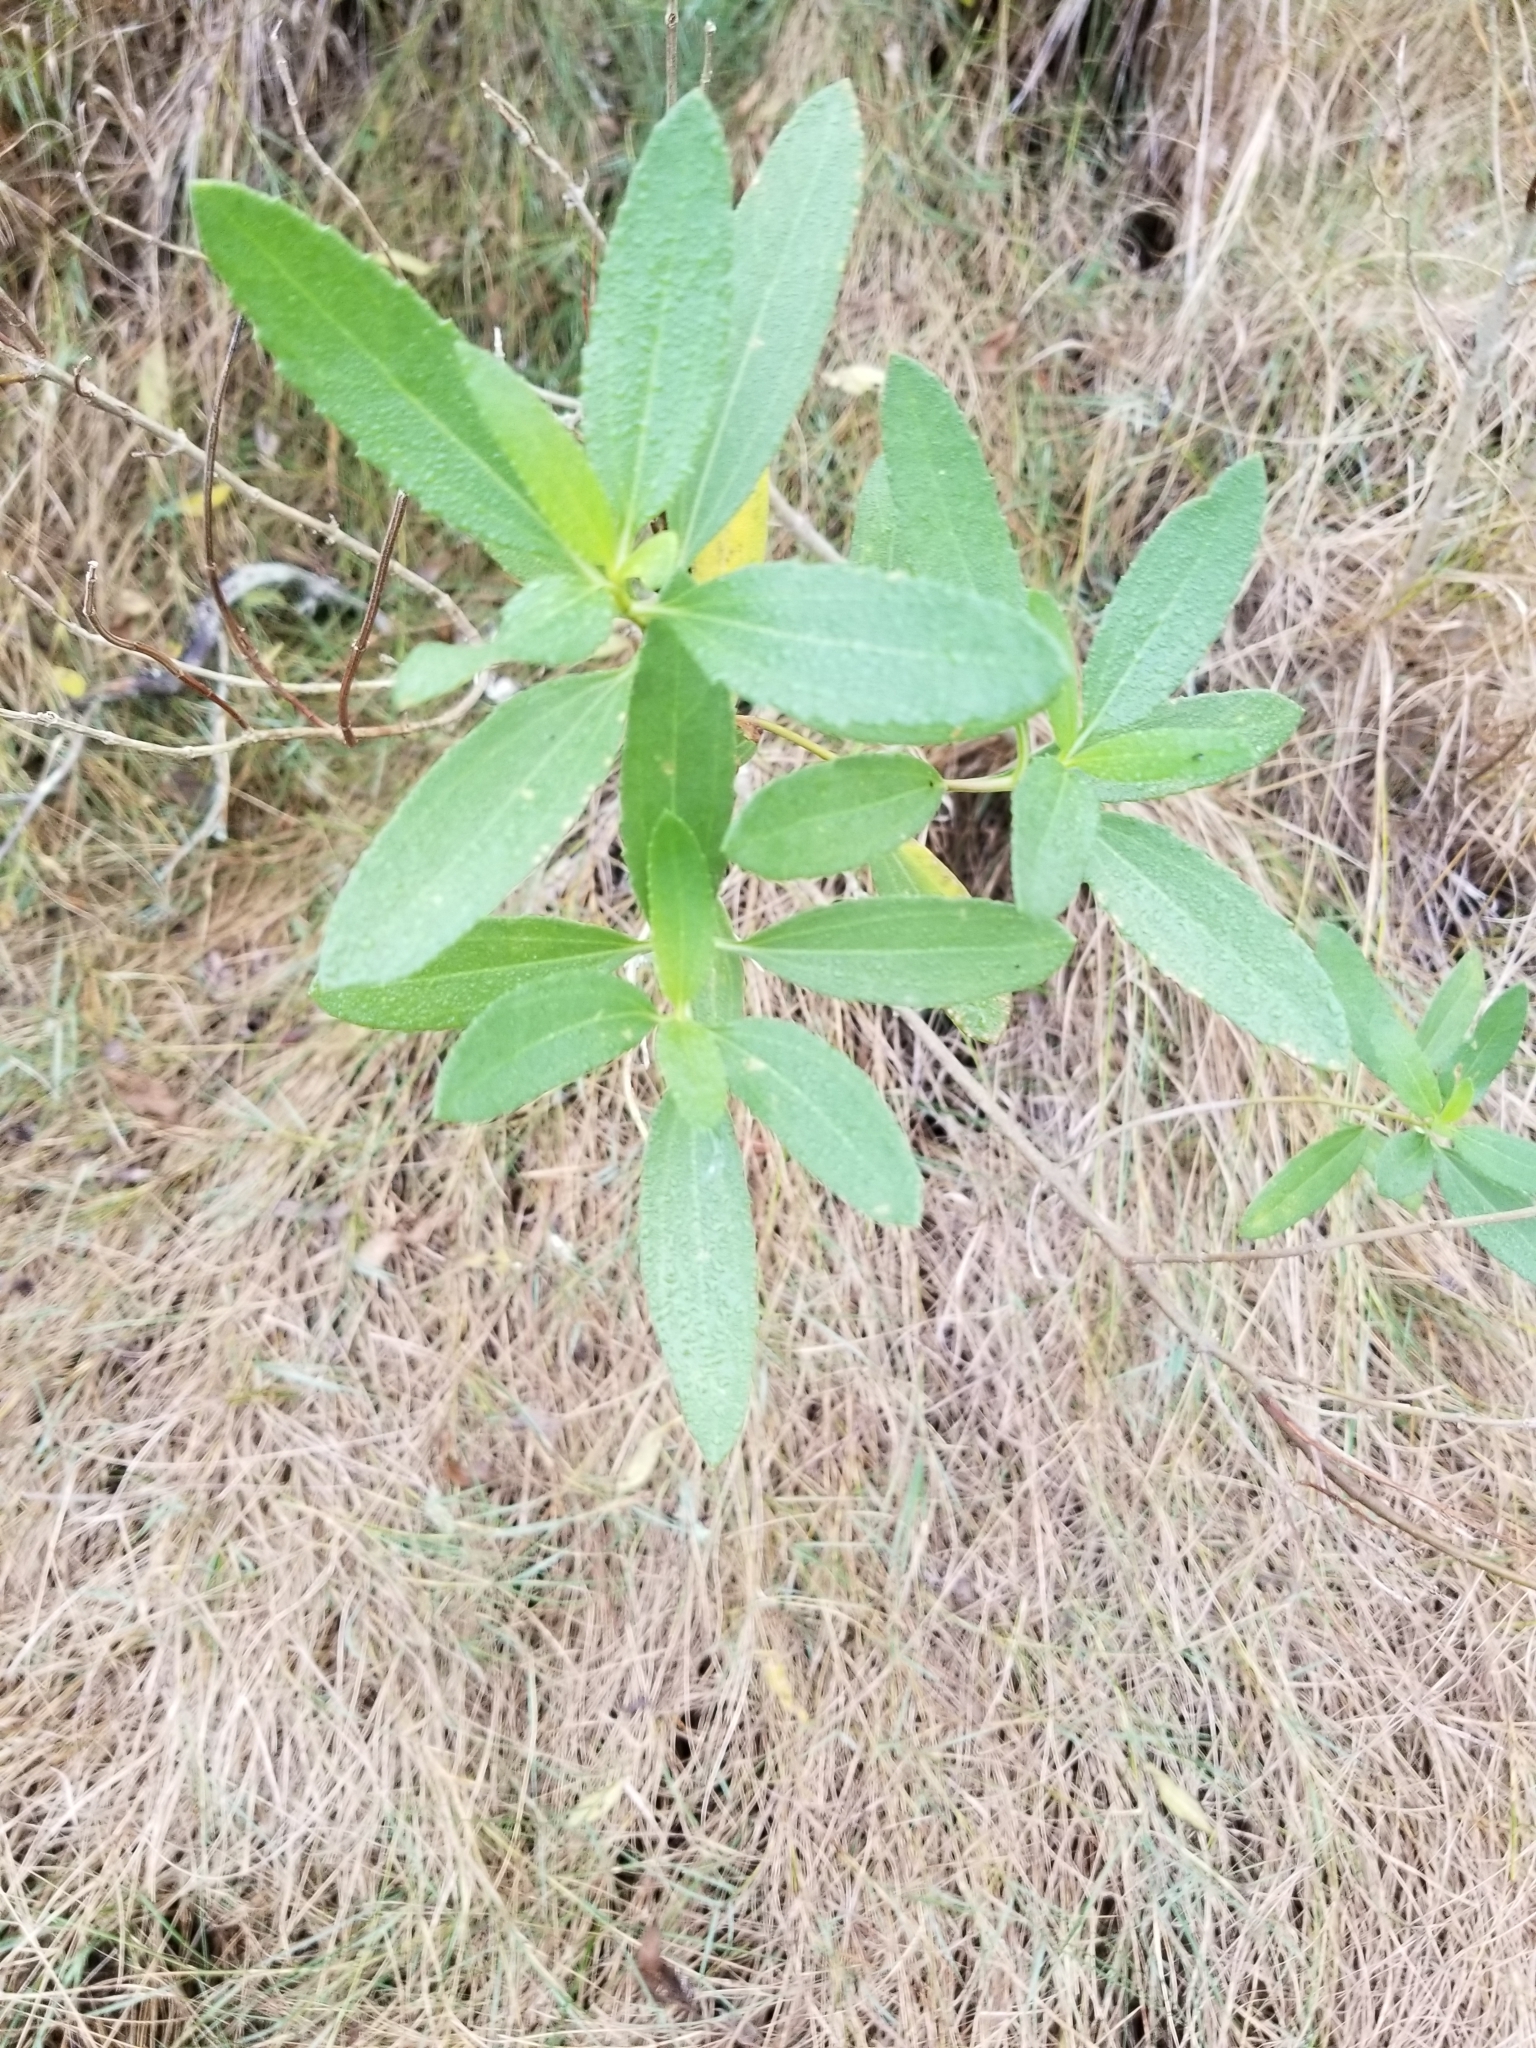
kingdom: Plantae
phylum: Tracheophyta
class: Magnoliopsida
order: Asterales
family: Asteraceae
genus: Iva
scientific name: Iva frutescens
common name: Big-leaved marsh-elder
